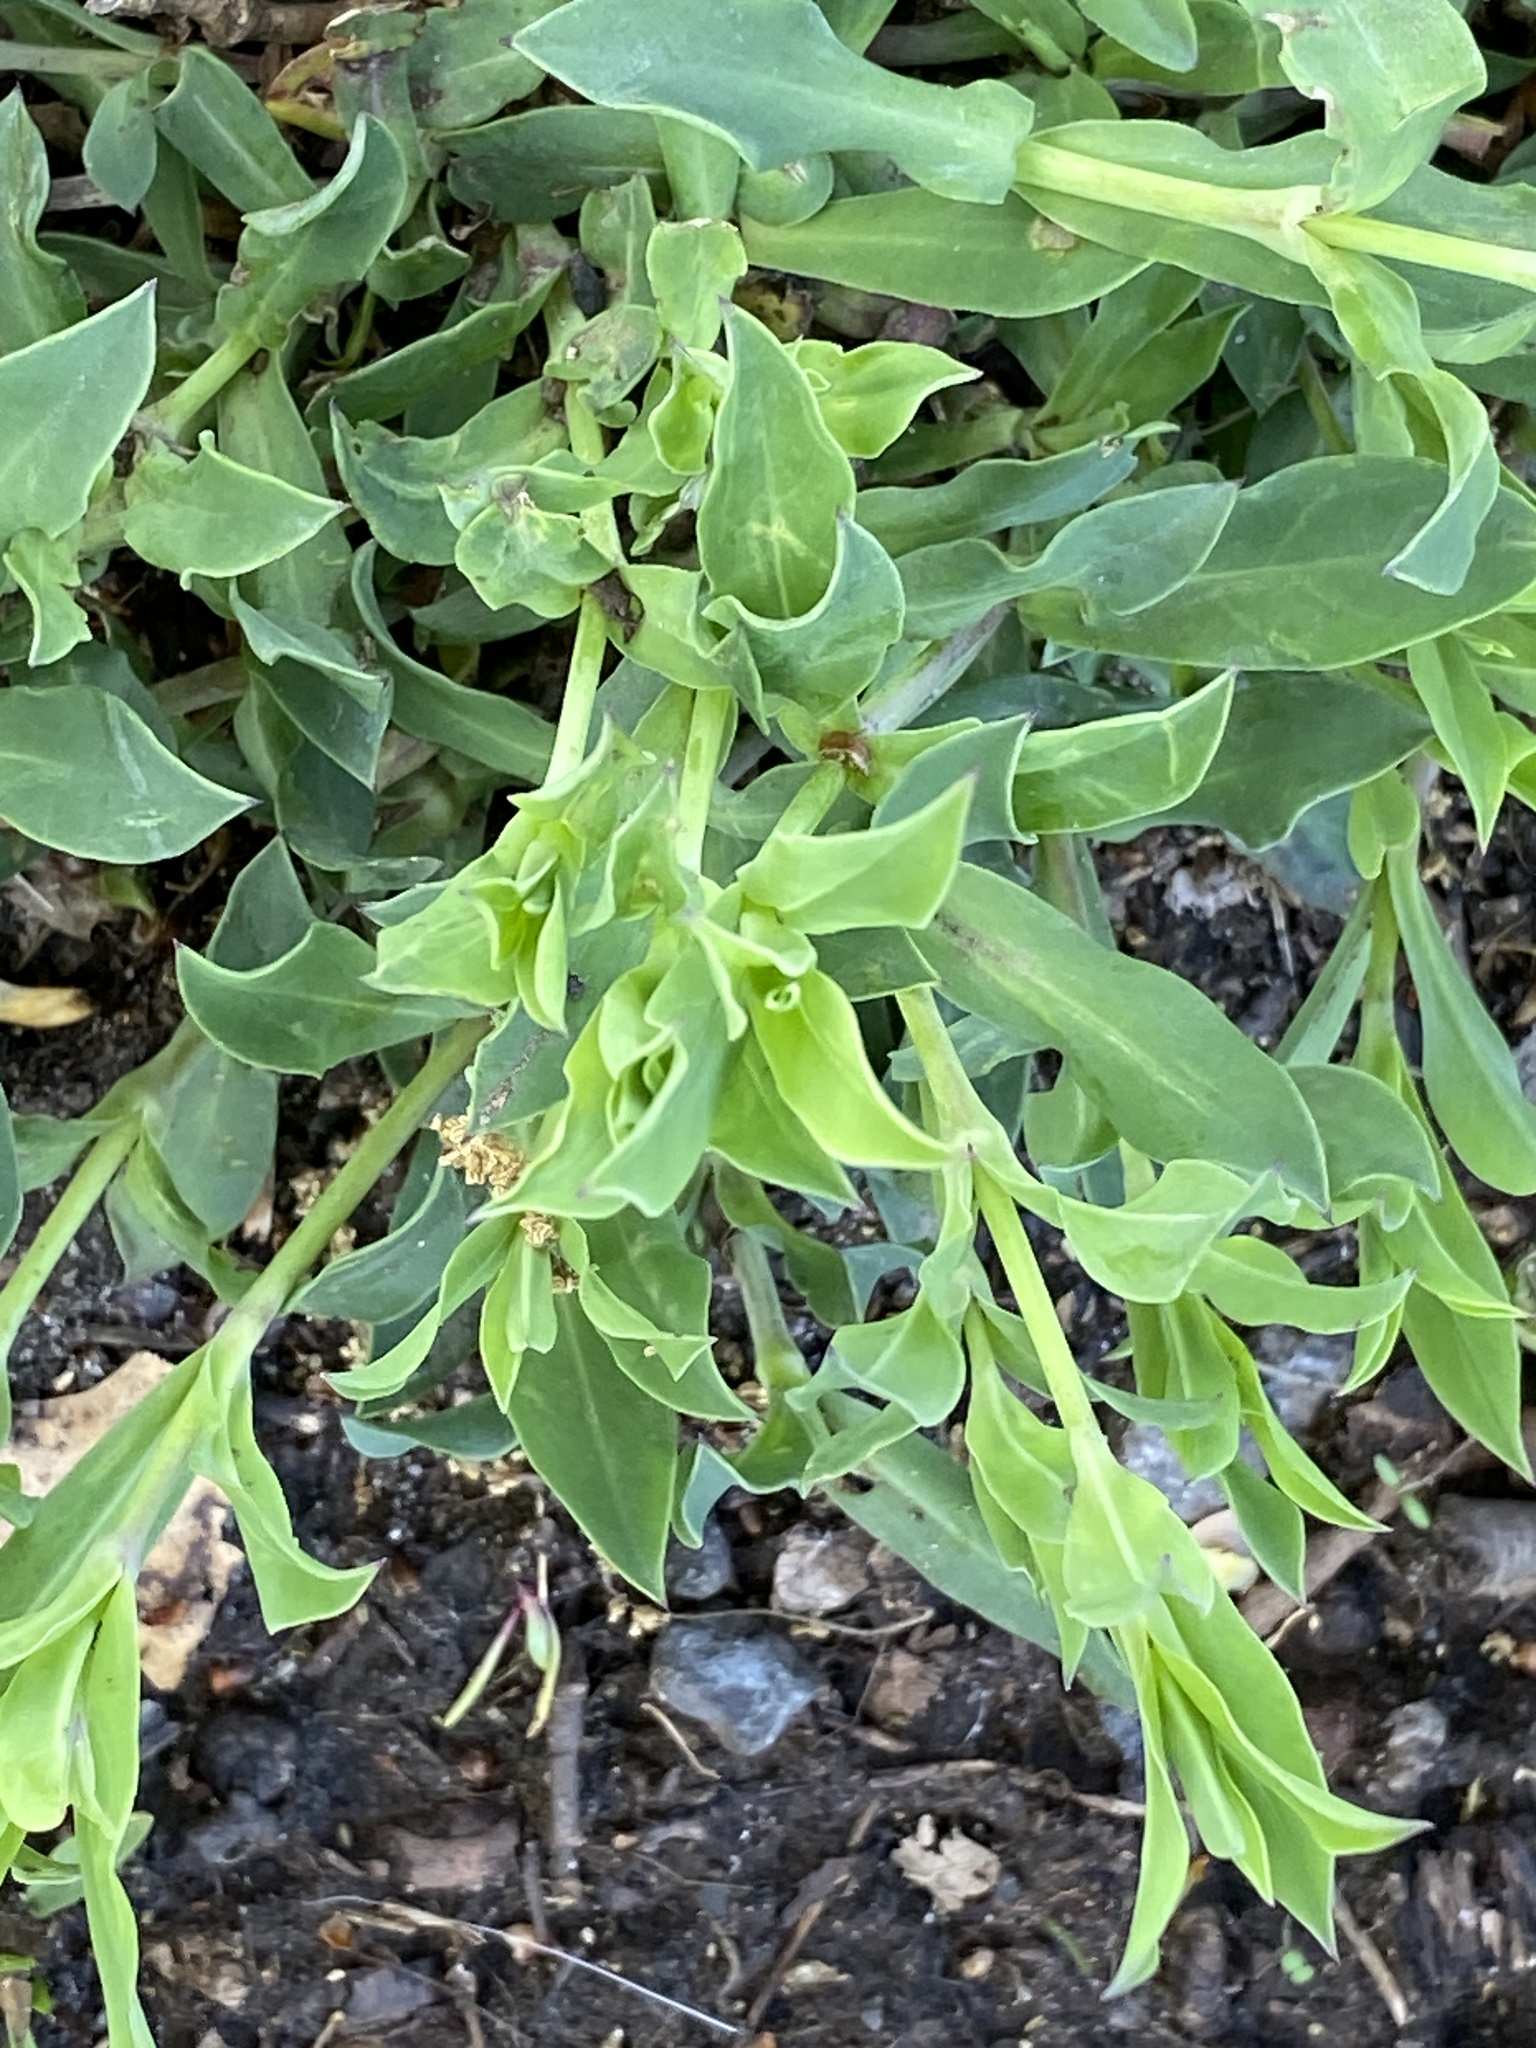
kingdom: Plantae
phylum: Tracheophyta
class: Magnoliopsida
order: Caryophyllales
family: Caryophyllaceae
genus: Silene
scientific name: Silene vulgaris
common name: Bladder campion
